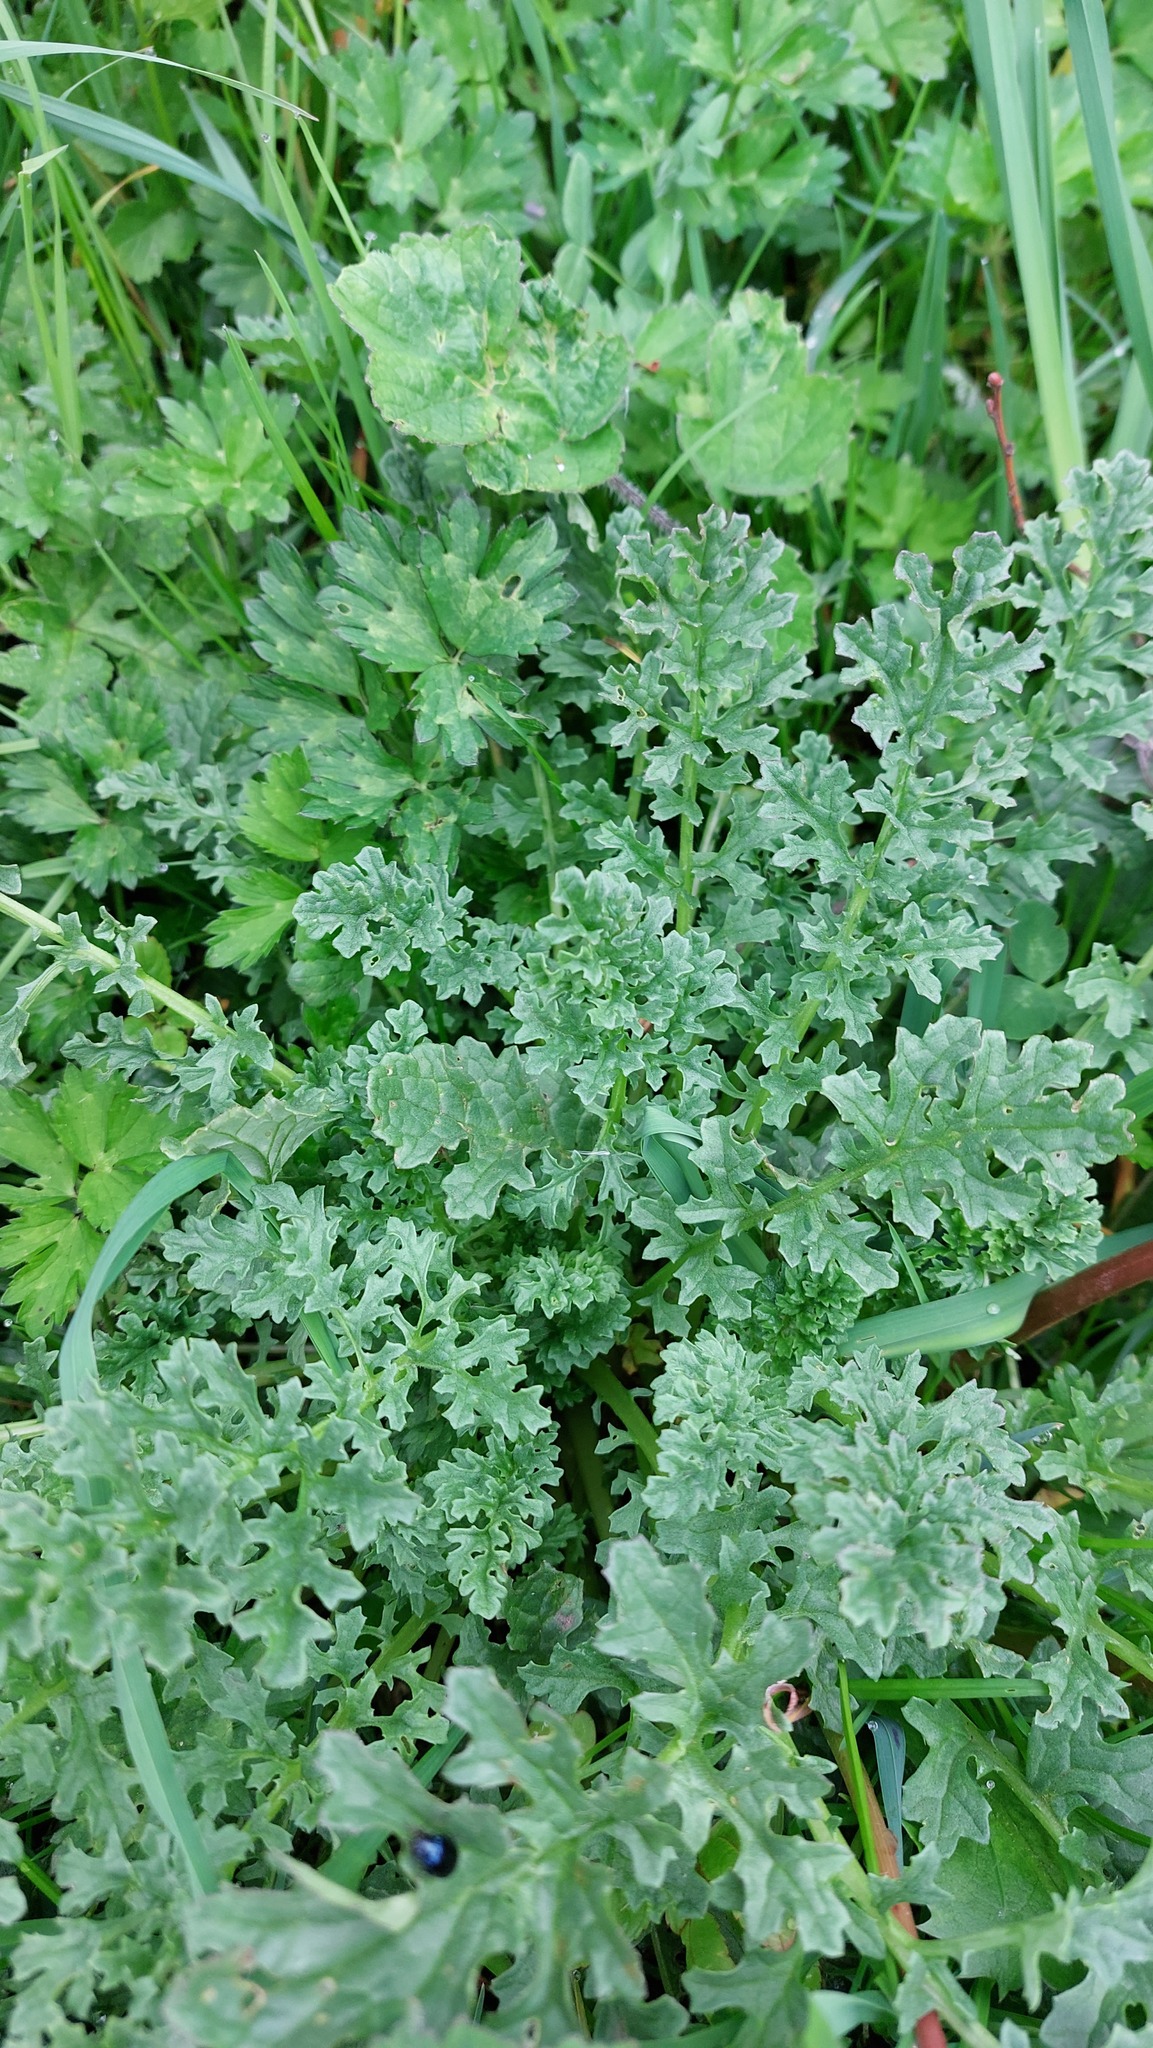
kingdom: Plantae
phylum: Tracheophyta
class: Magnoliopsida
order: Asterales
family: Asteraceae
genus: Jacobaea
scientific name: Jacobaea vulgaris
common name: Stinking willie
